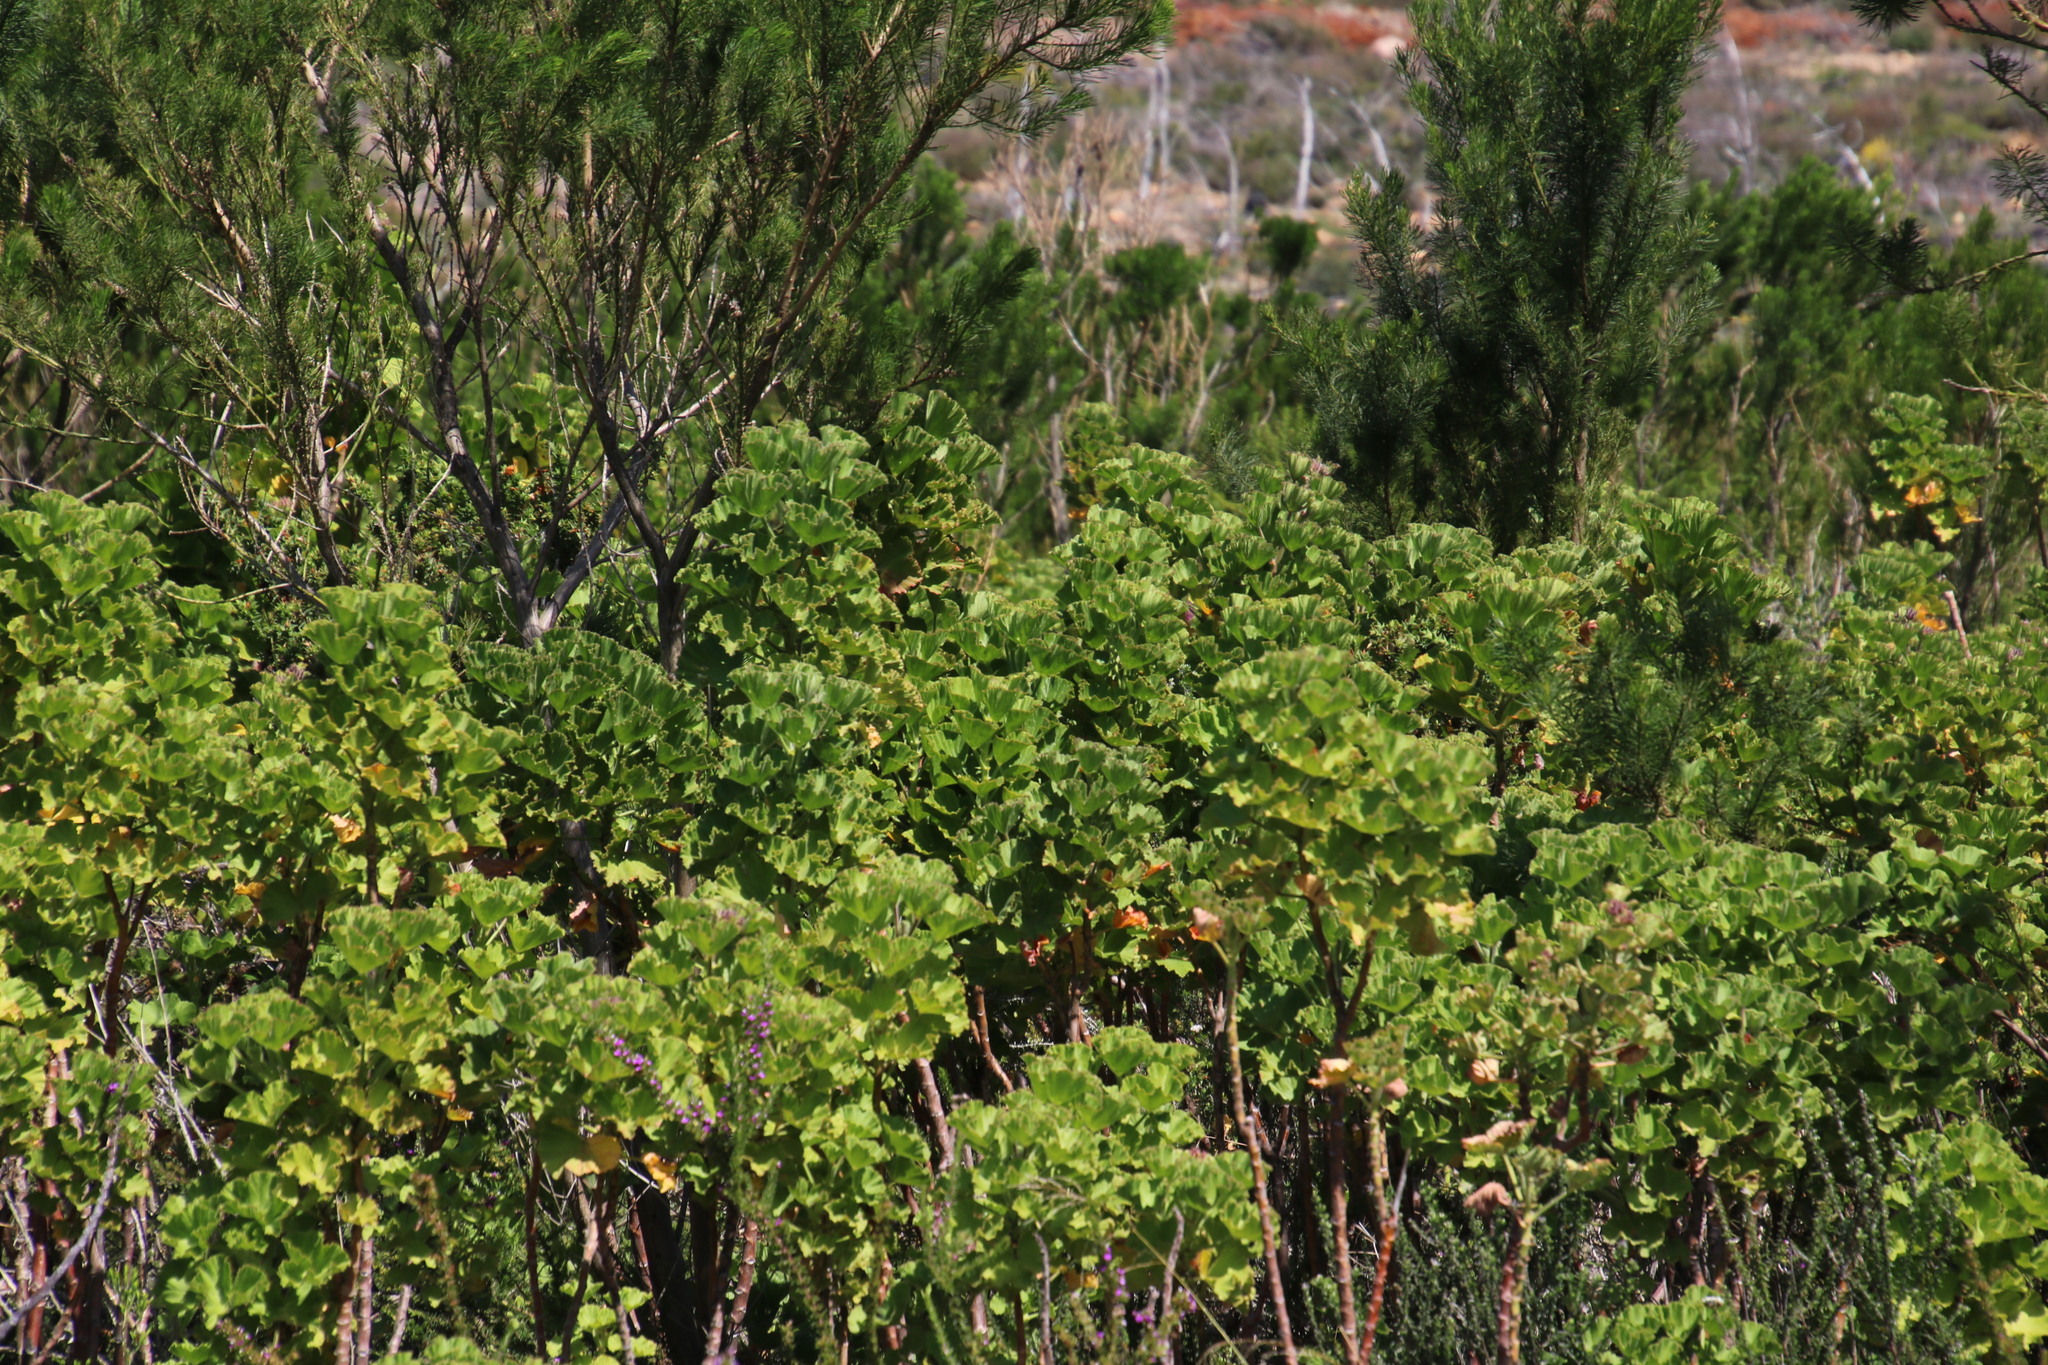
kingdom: Plantae
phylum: Tracheophyta
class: Magnoliopsida
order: Geraniales
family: Geraniaceae
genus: Pelargonium
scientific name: Pelargonium cucullatum
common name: Tree pelargonium
